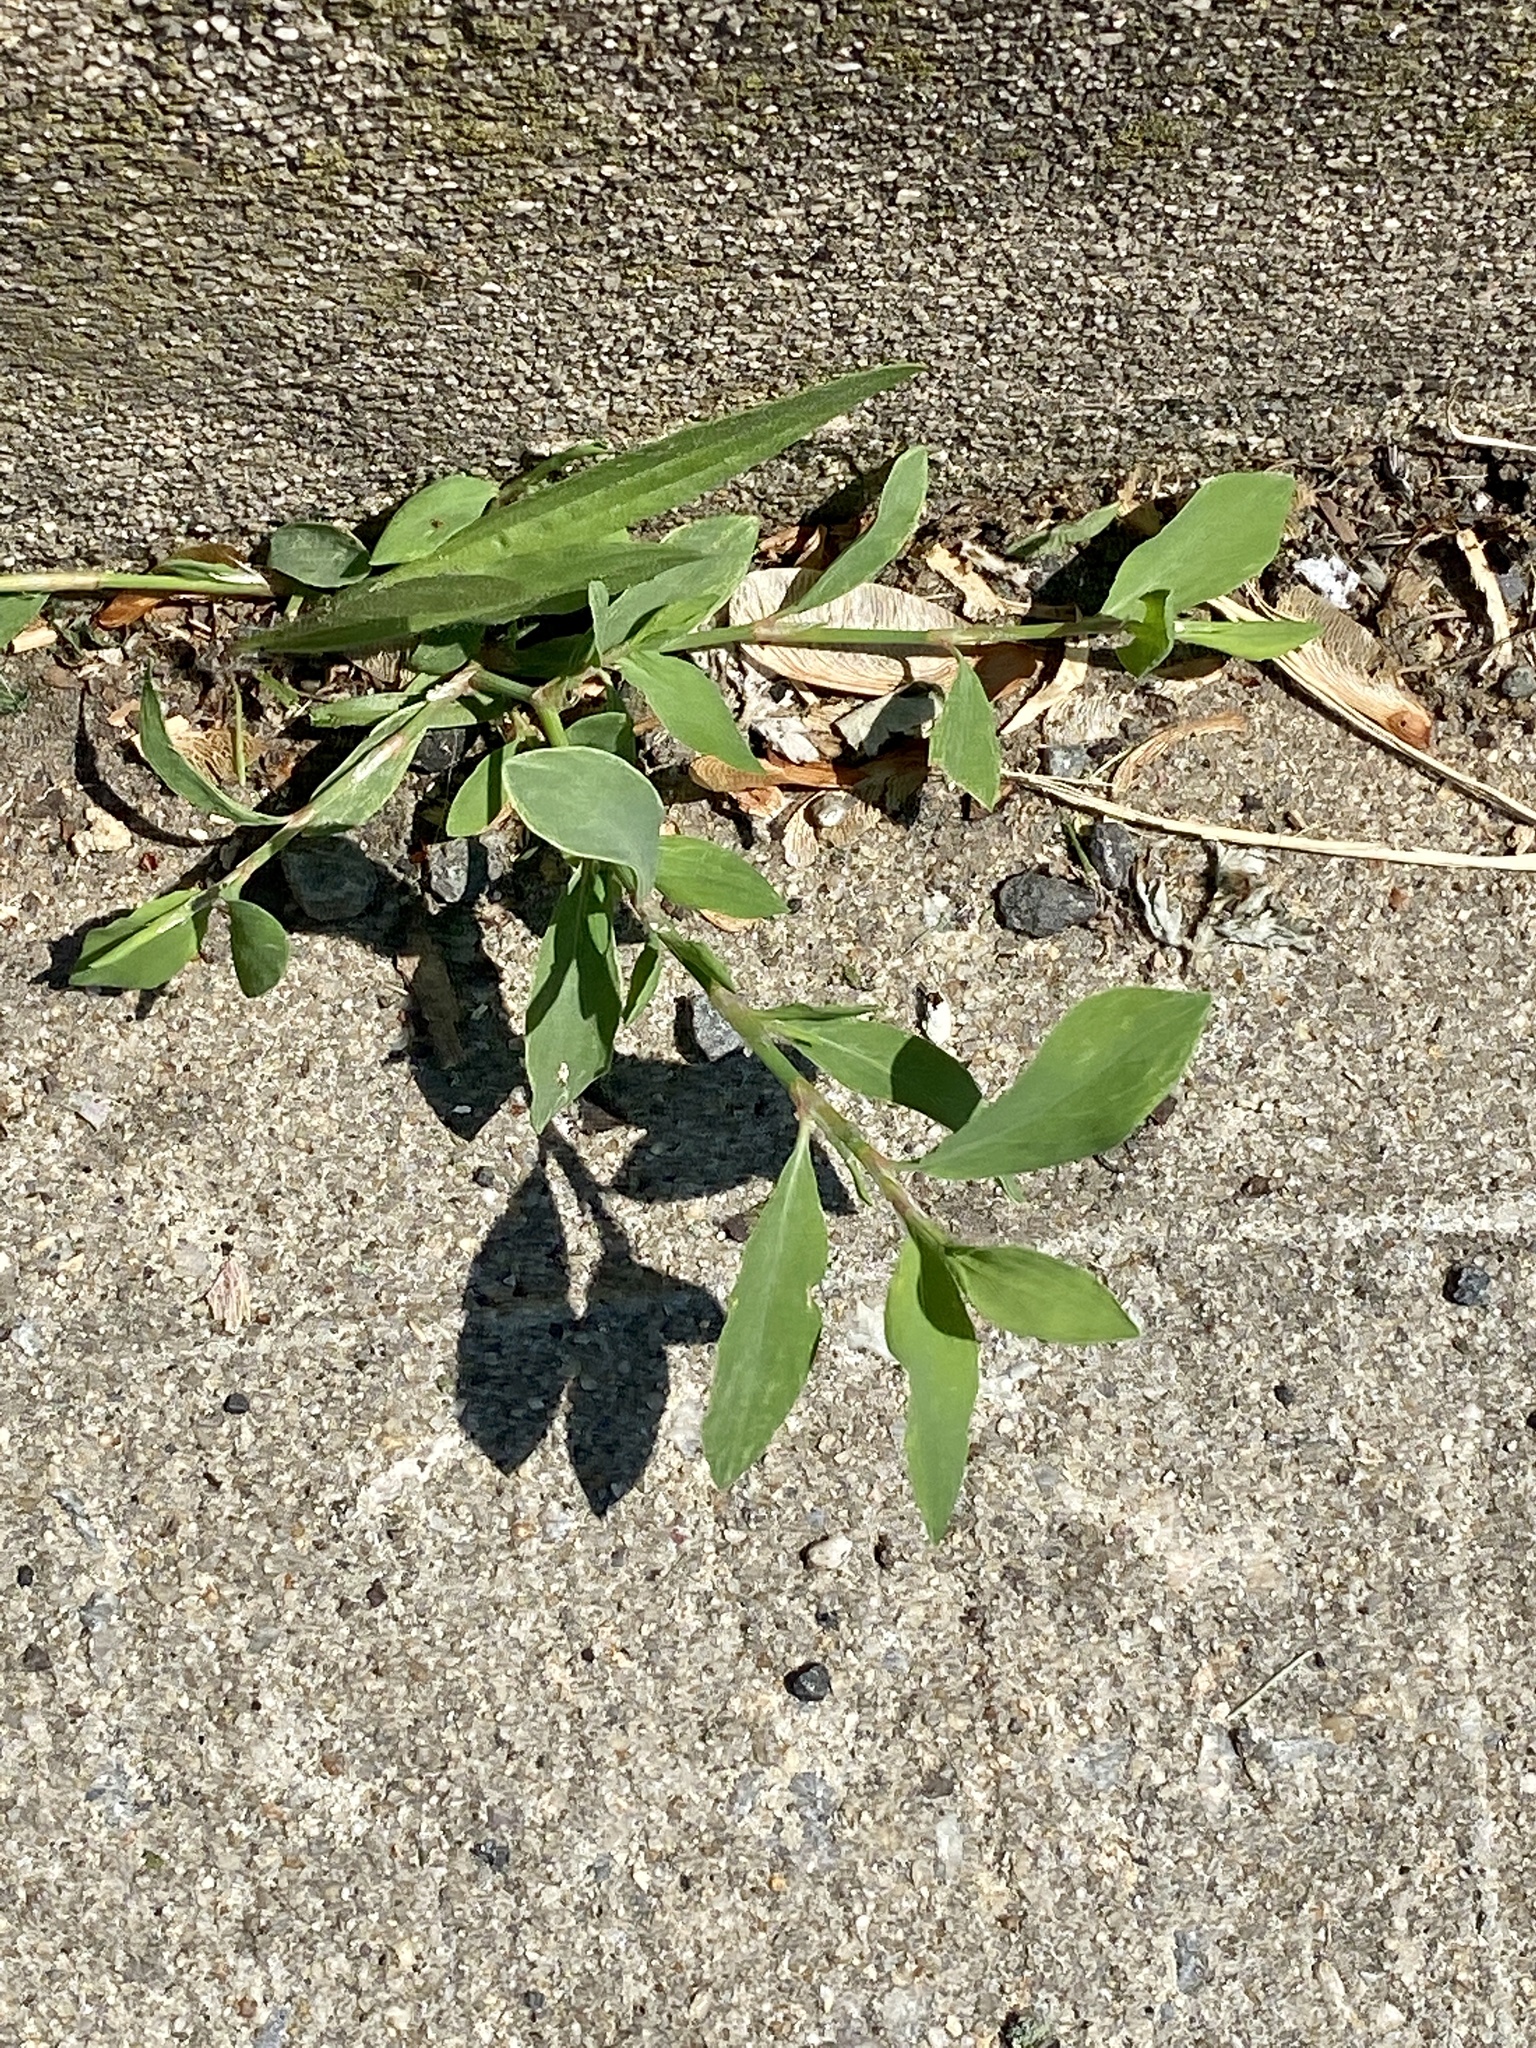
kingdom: Plantae
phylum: Tracheophyta
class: Magnoliopsida
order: Caryophyllales
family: Polygonaceae
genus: Polygonum
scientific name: Polygonum aviculare
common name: Prostrate knotweed
